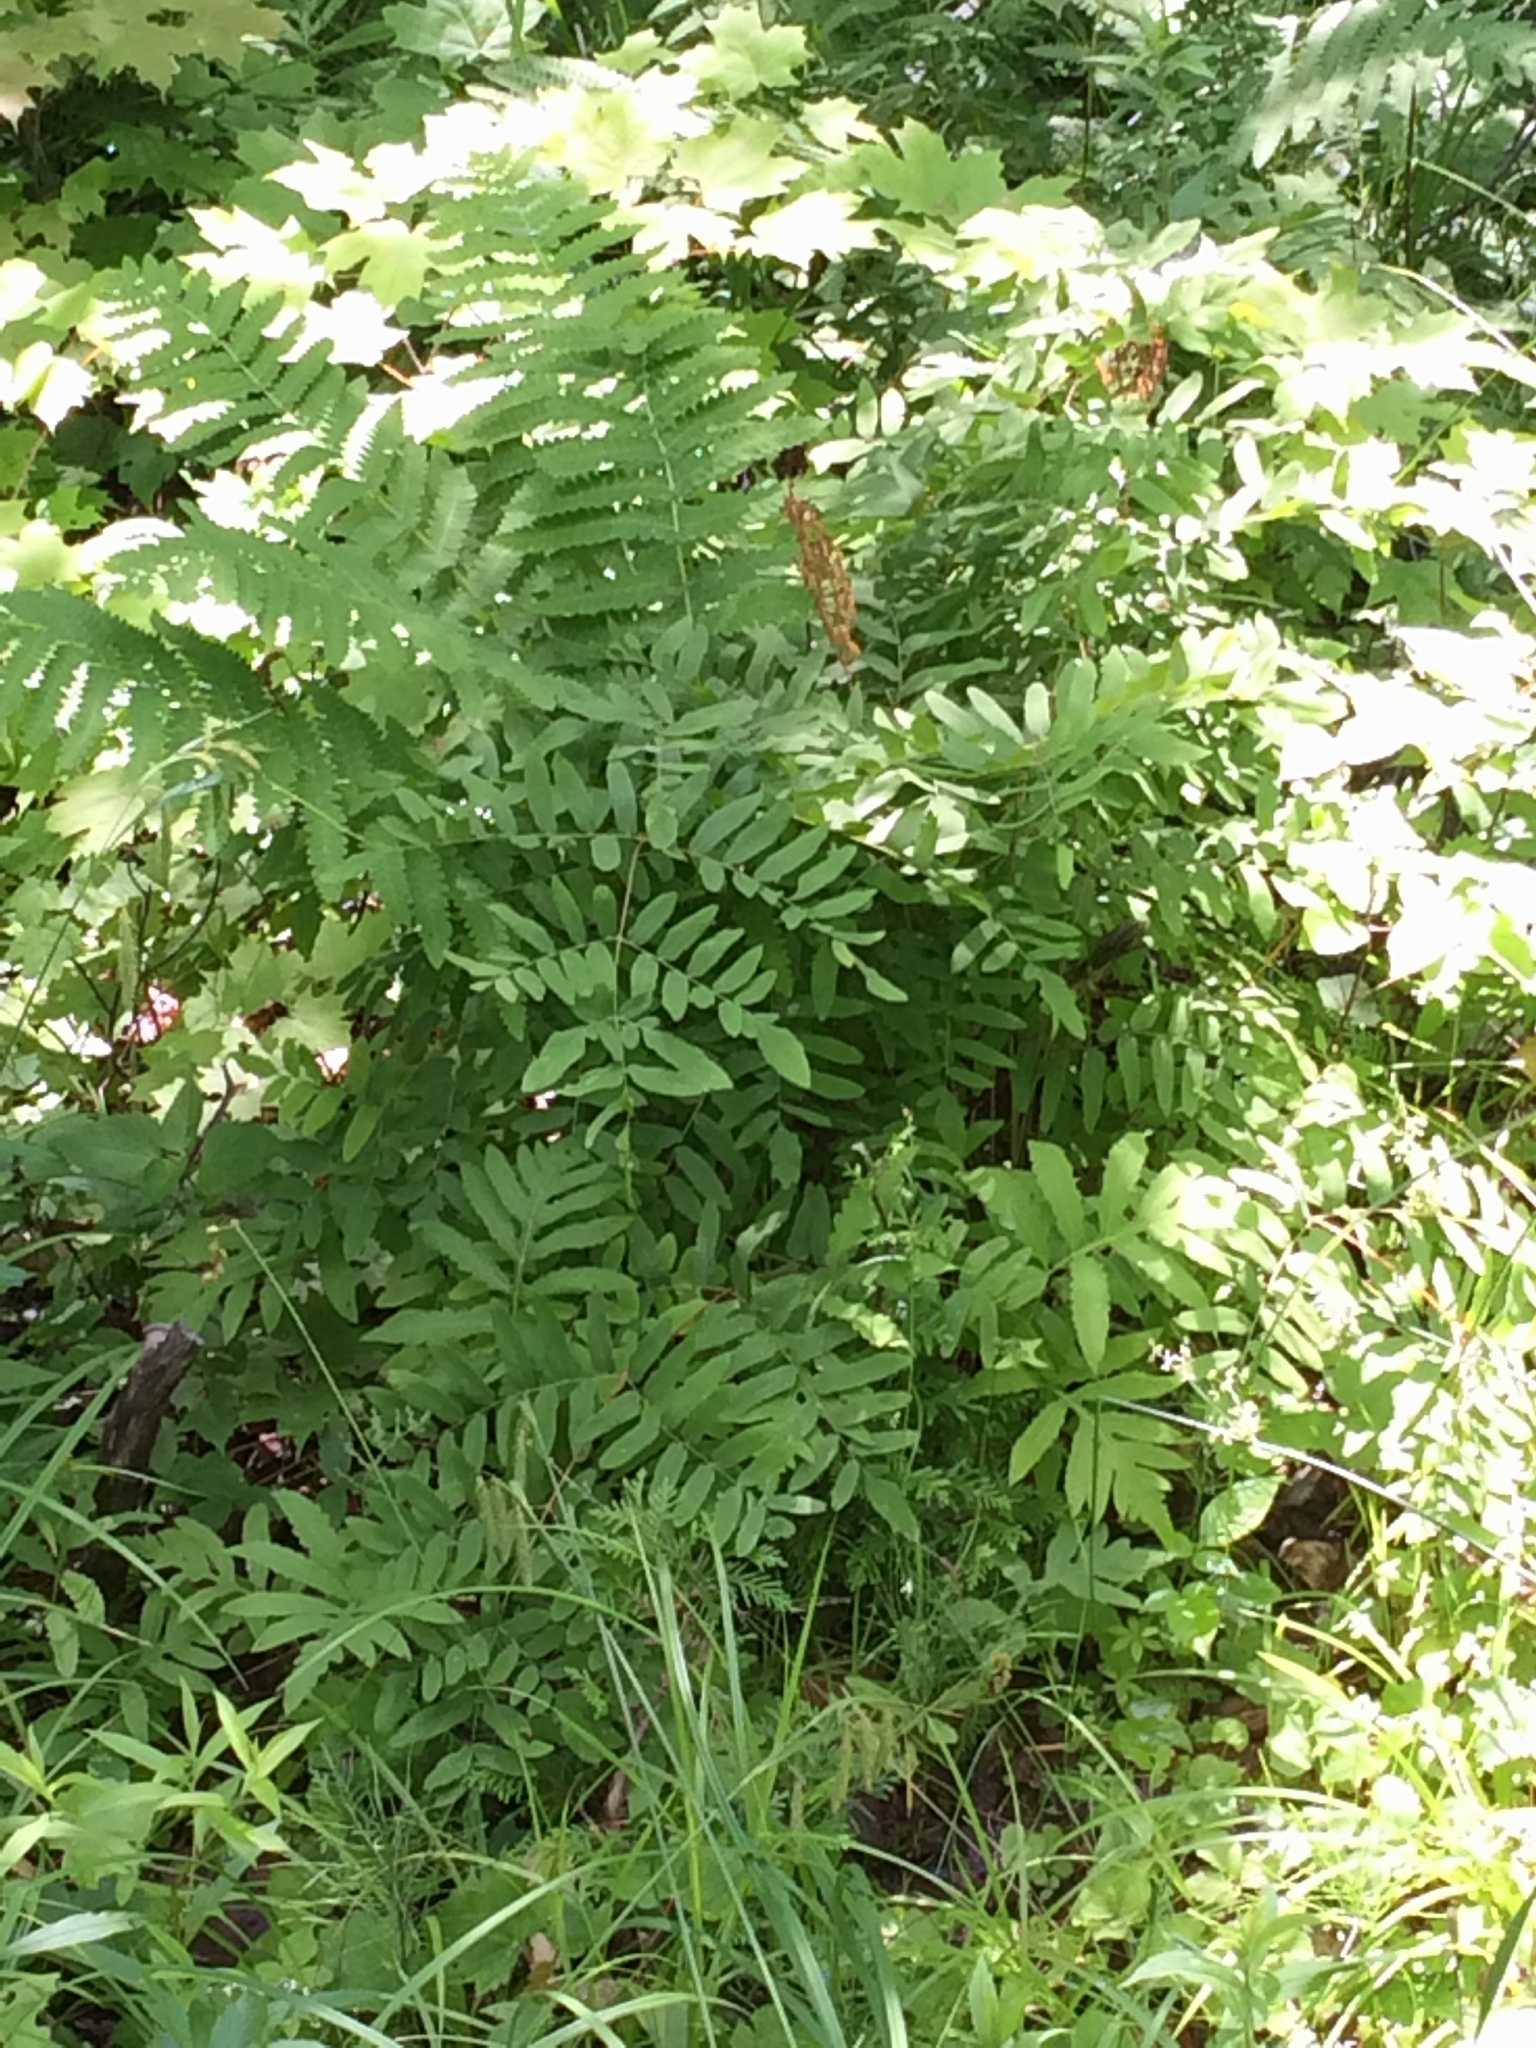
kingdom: Plantae
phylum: Tracheophyta
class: Polypodiopsida
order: Osmundales
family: Osmundaceae
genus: Osmunda
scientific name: Osmunda spectabilis
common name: American royal fern
